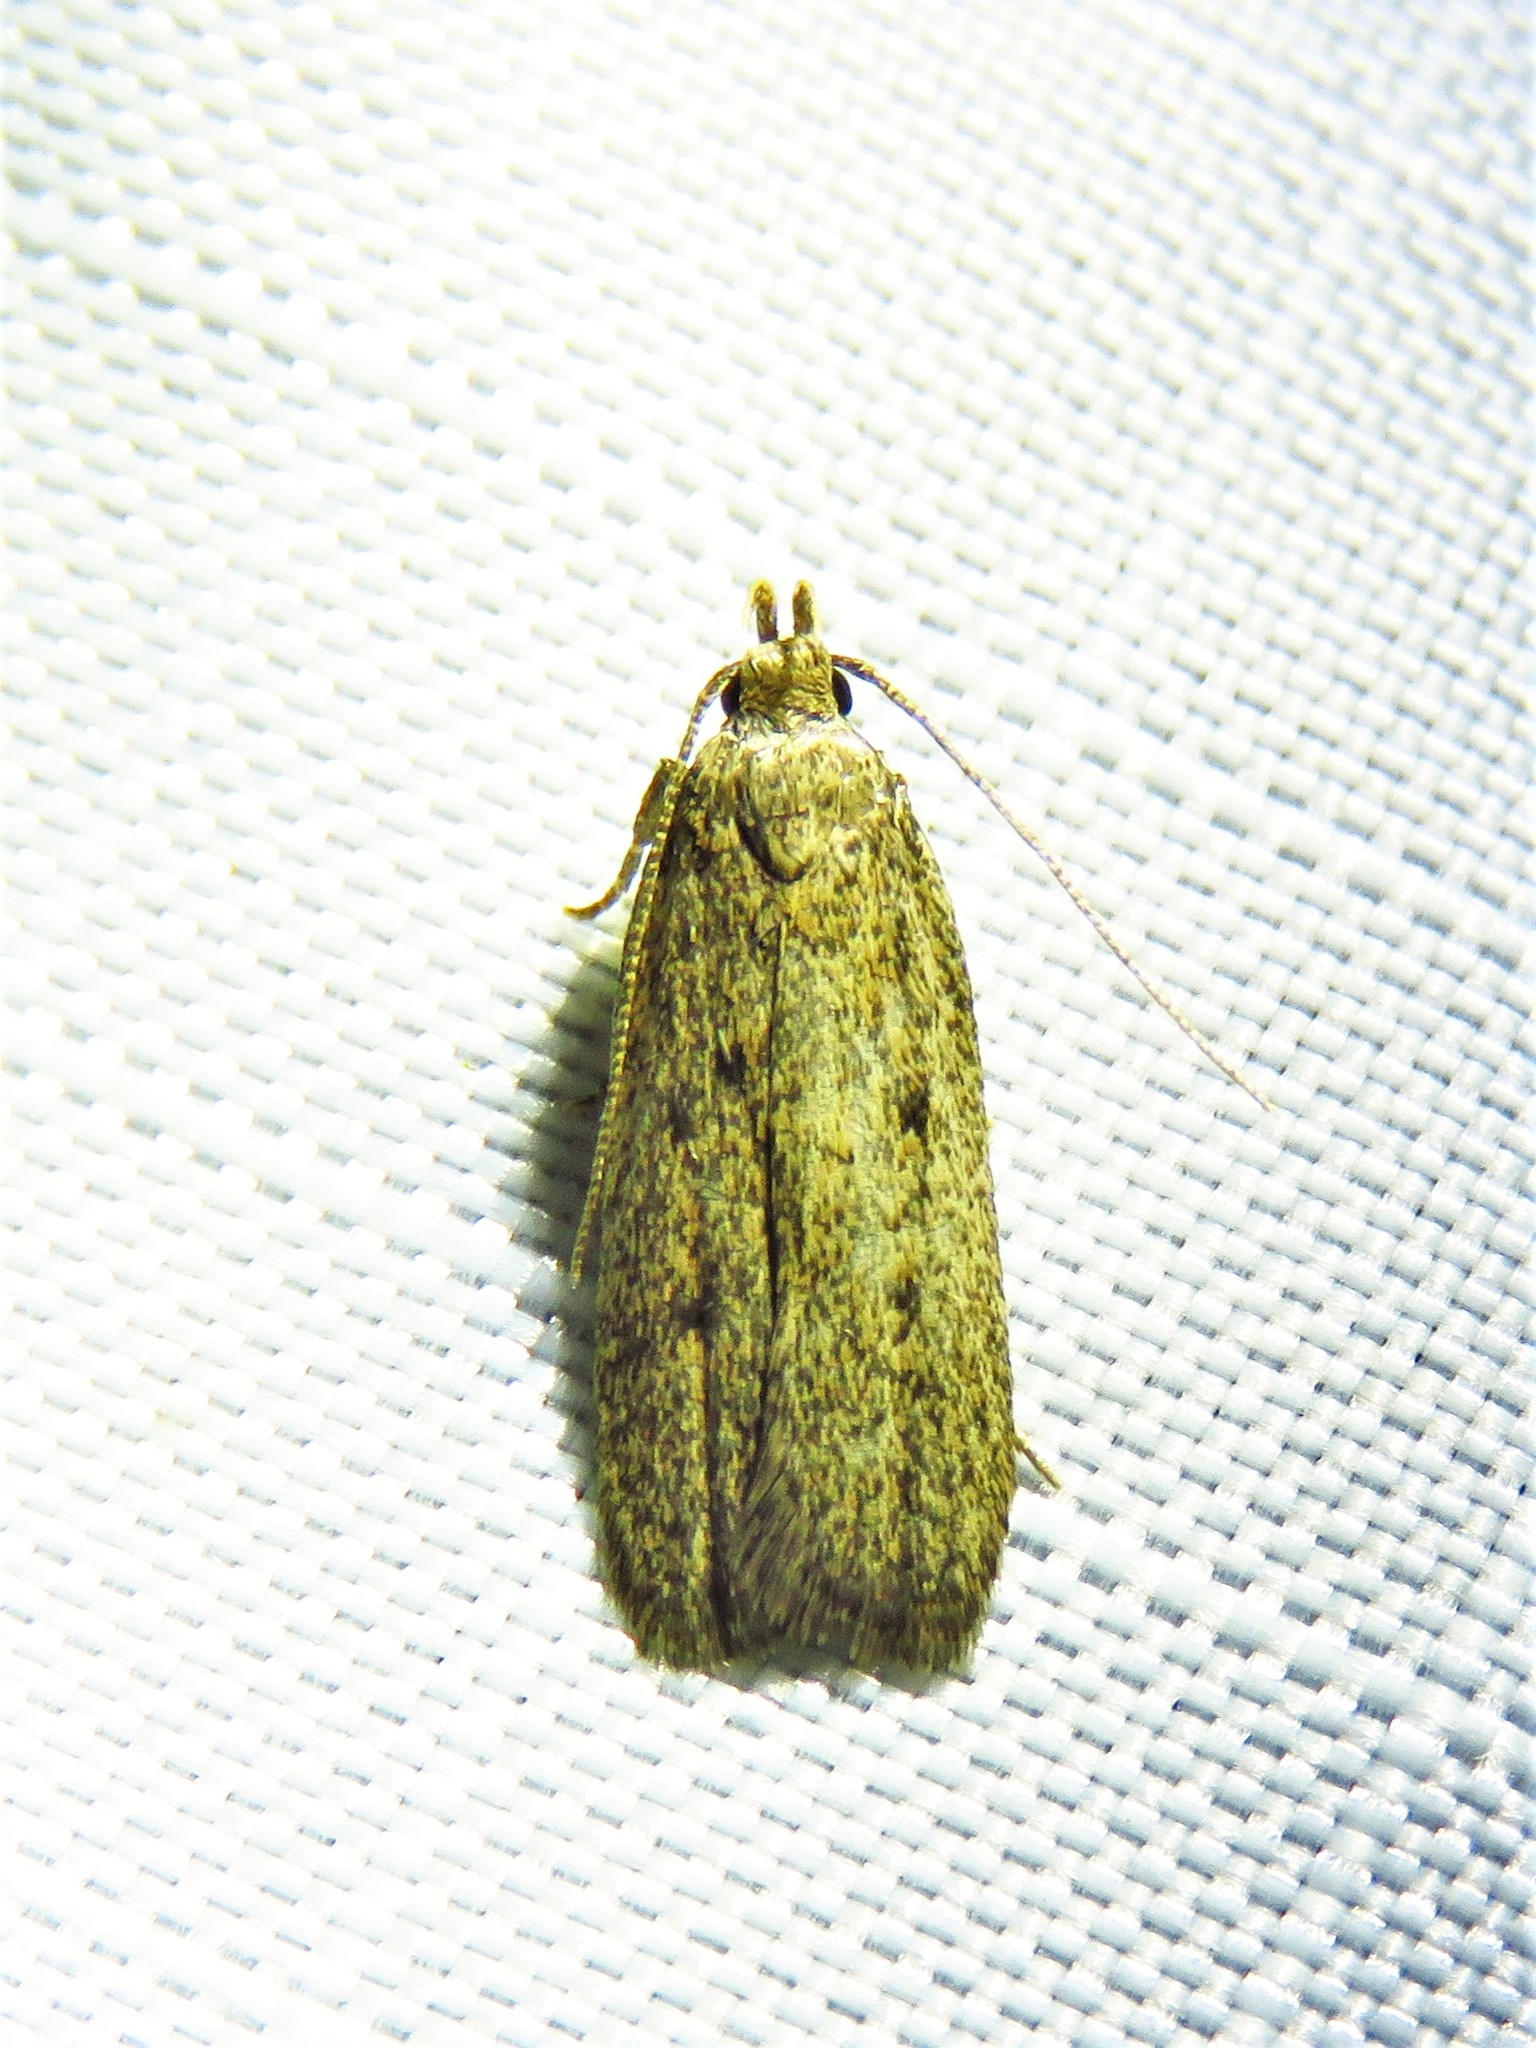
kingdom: Animalia
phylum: Arthropoda
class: Insecta
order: Lepidoptera
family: Autostichidae
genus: Glyphidocera
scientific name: Glyphidocera juniperella
